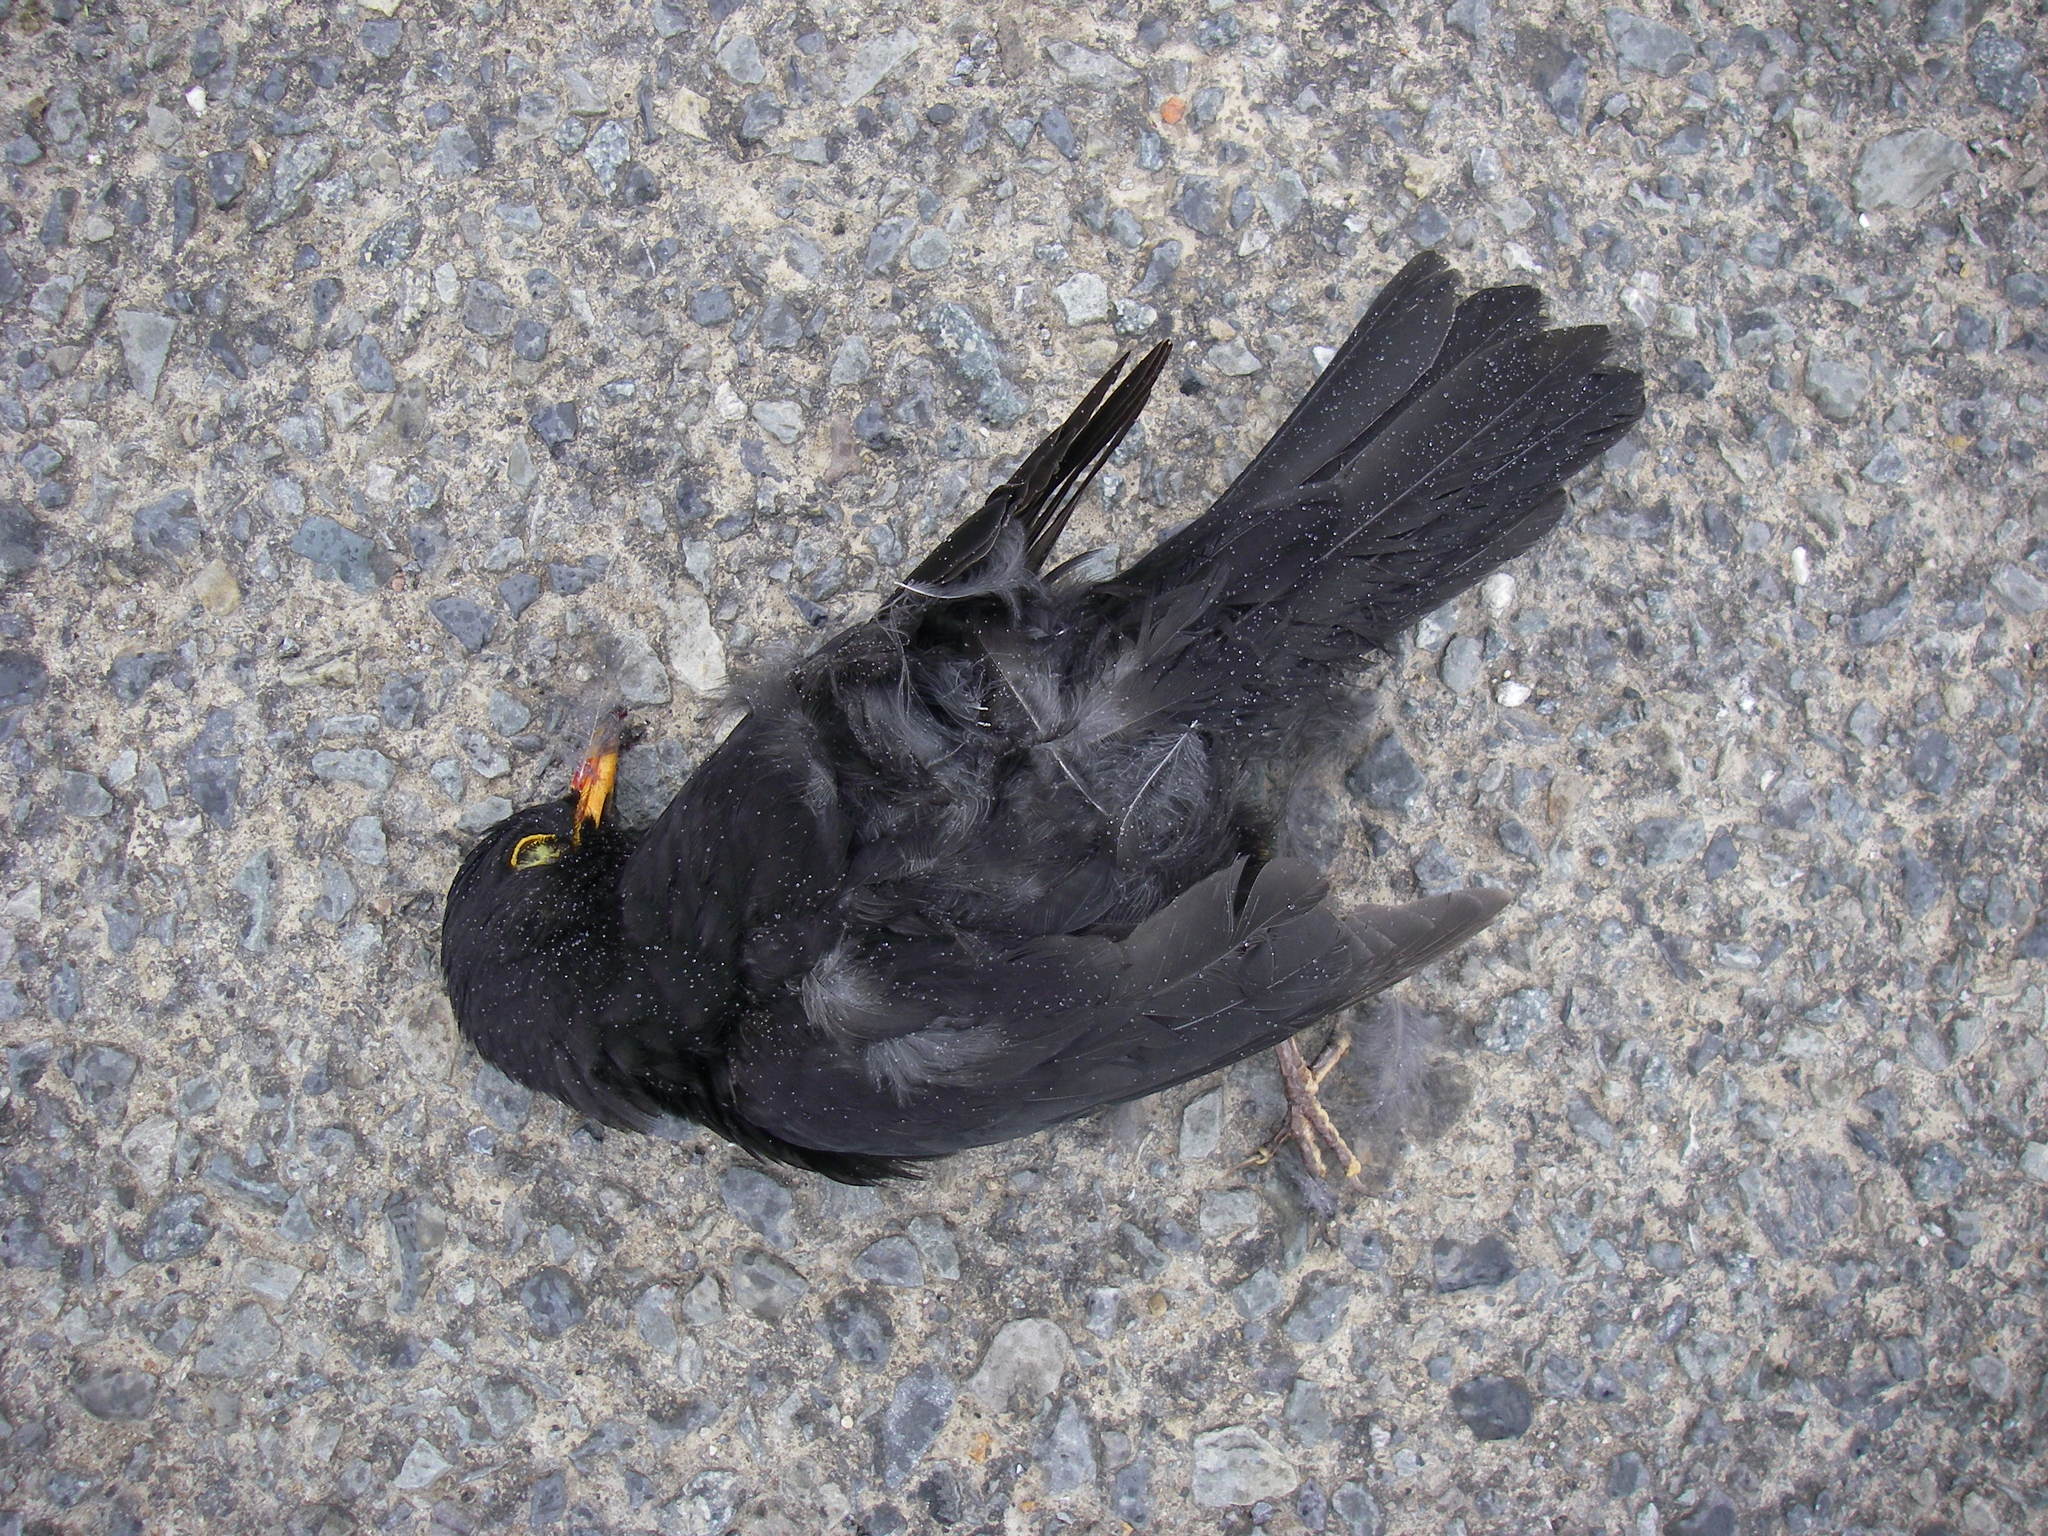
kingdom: Animalia
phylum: Chordata
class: Aves
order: Passeriformes
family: Turdidae
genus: Turdus
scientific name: Turdus merula
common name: Common blackbird
